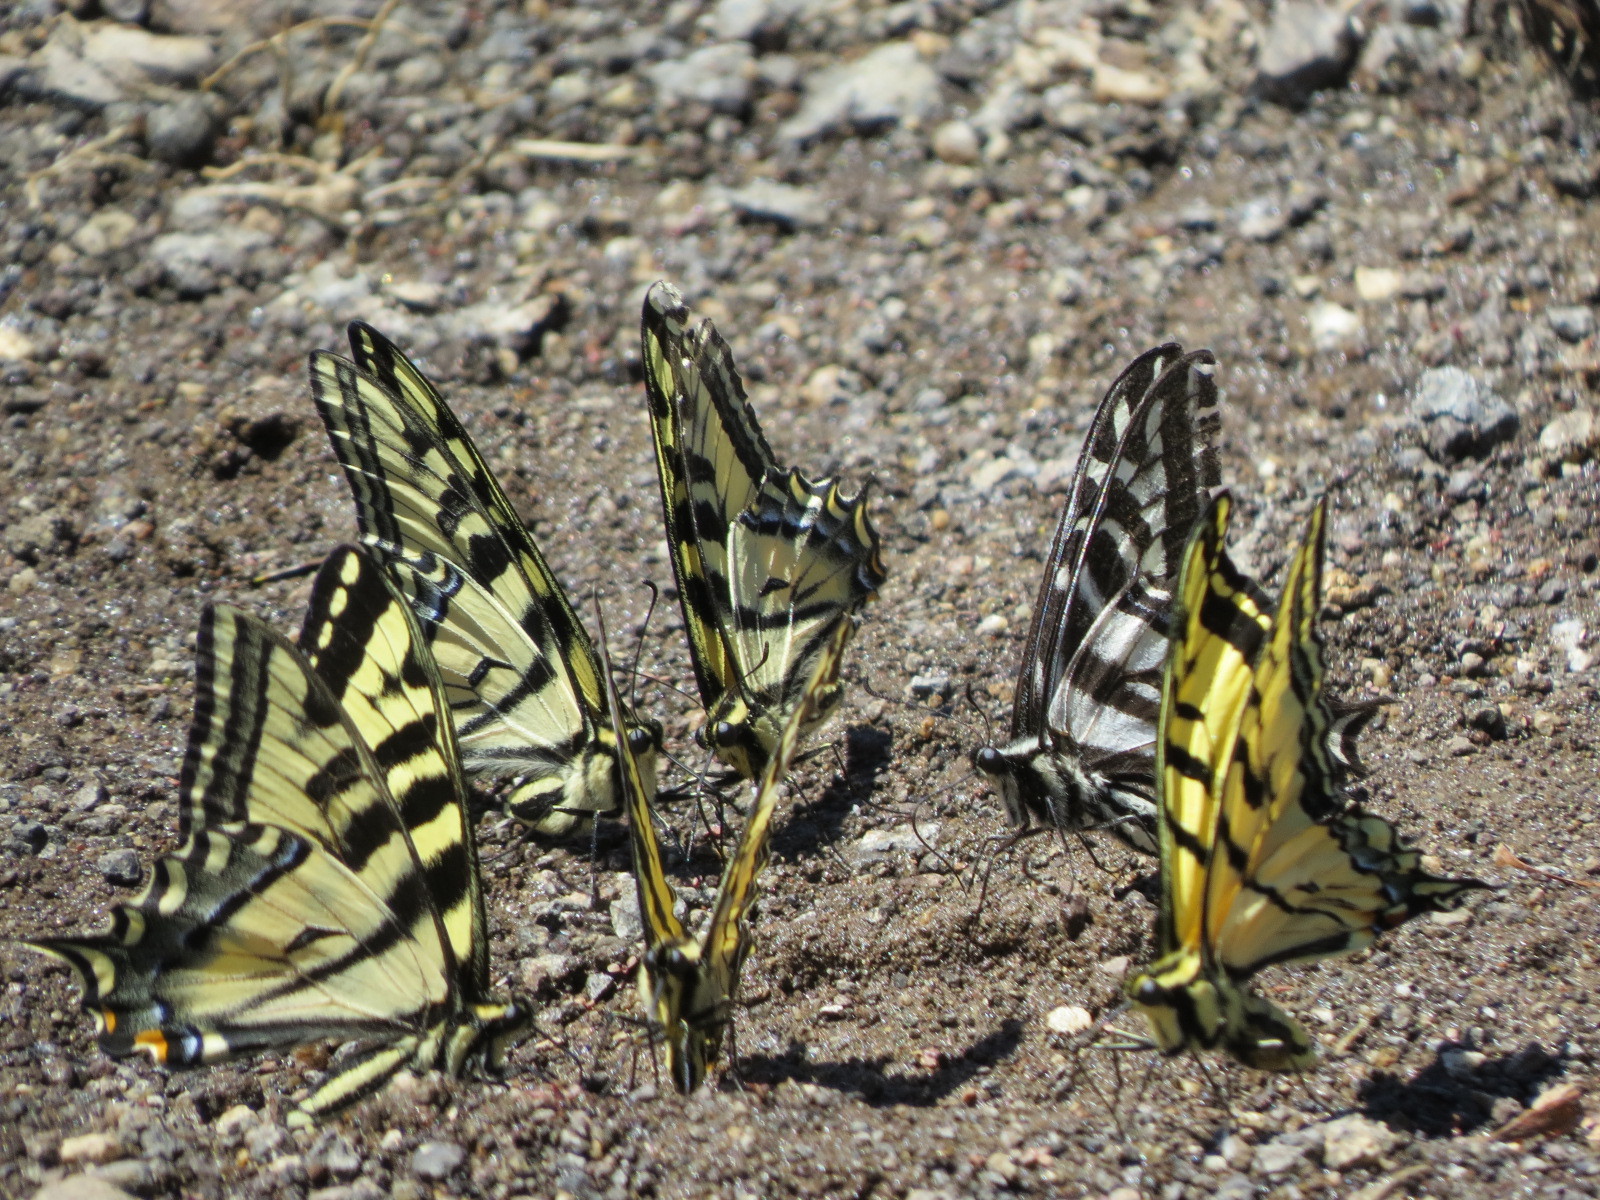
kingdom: Animalia
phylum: Arthropoda
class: Insecta
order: Lepidoptera
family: Papilionidae
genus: Papilio
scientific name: Papilio eurymedon
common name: Pale tiger swallowtail
